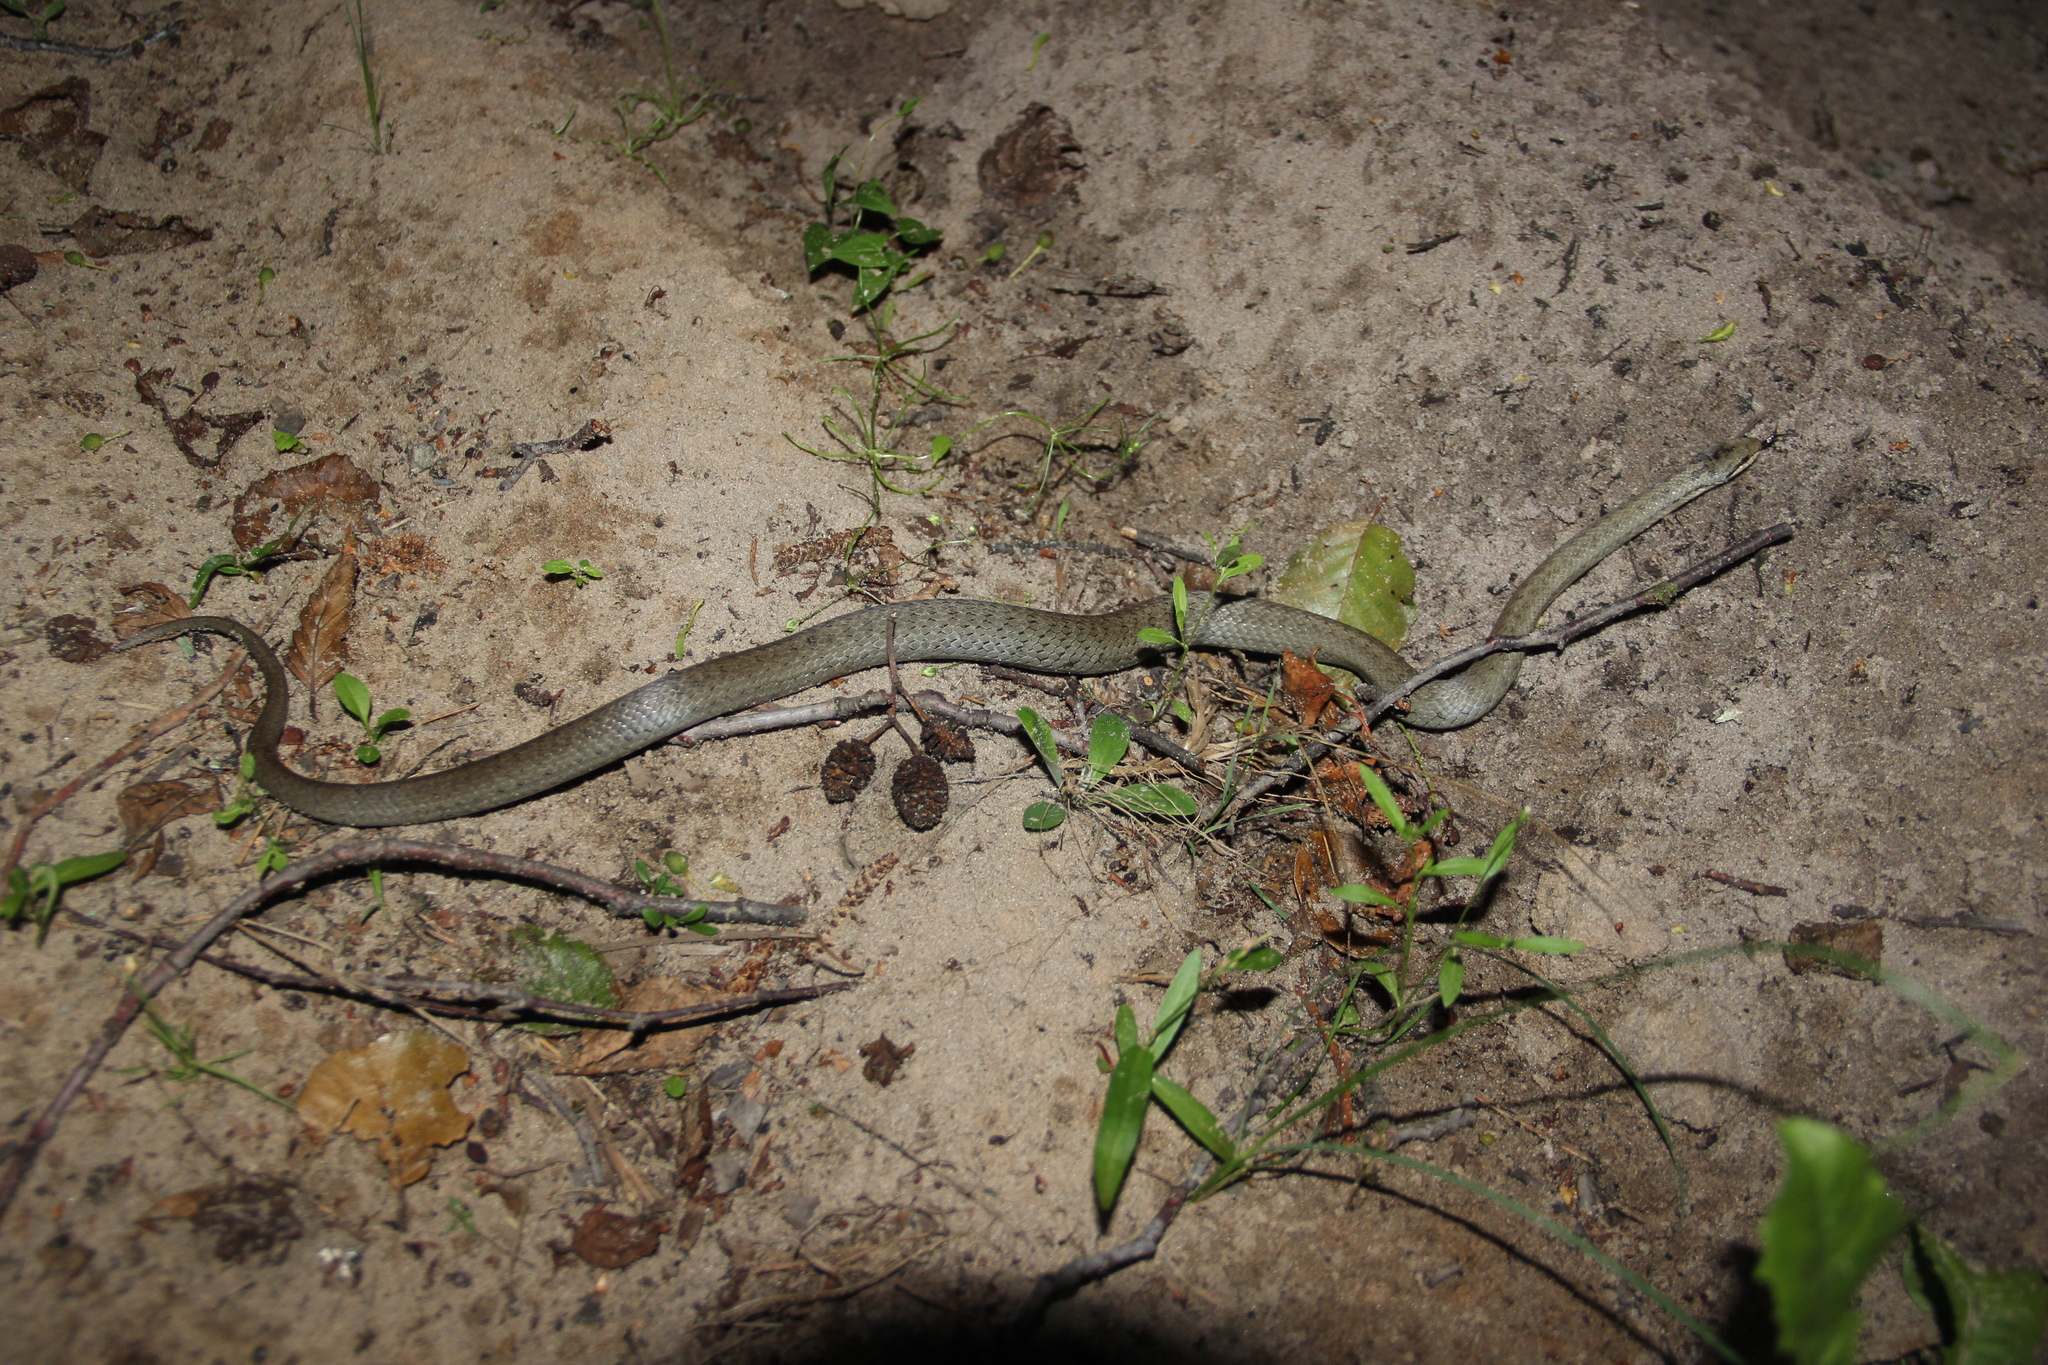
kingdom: Animalia
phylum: Chordata
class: Squamata
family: Colubridae
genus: Coronella
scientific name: Coronella austriaca
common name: Smooth snake
